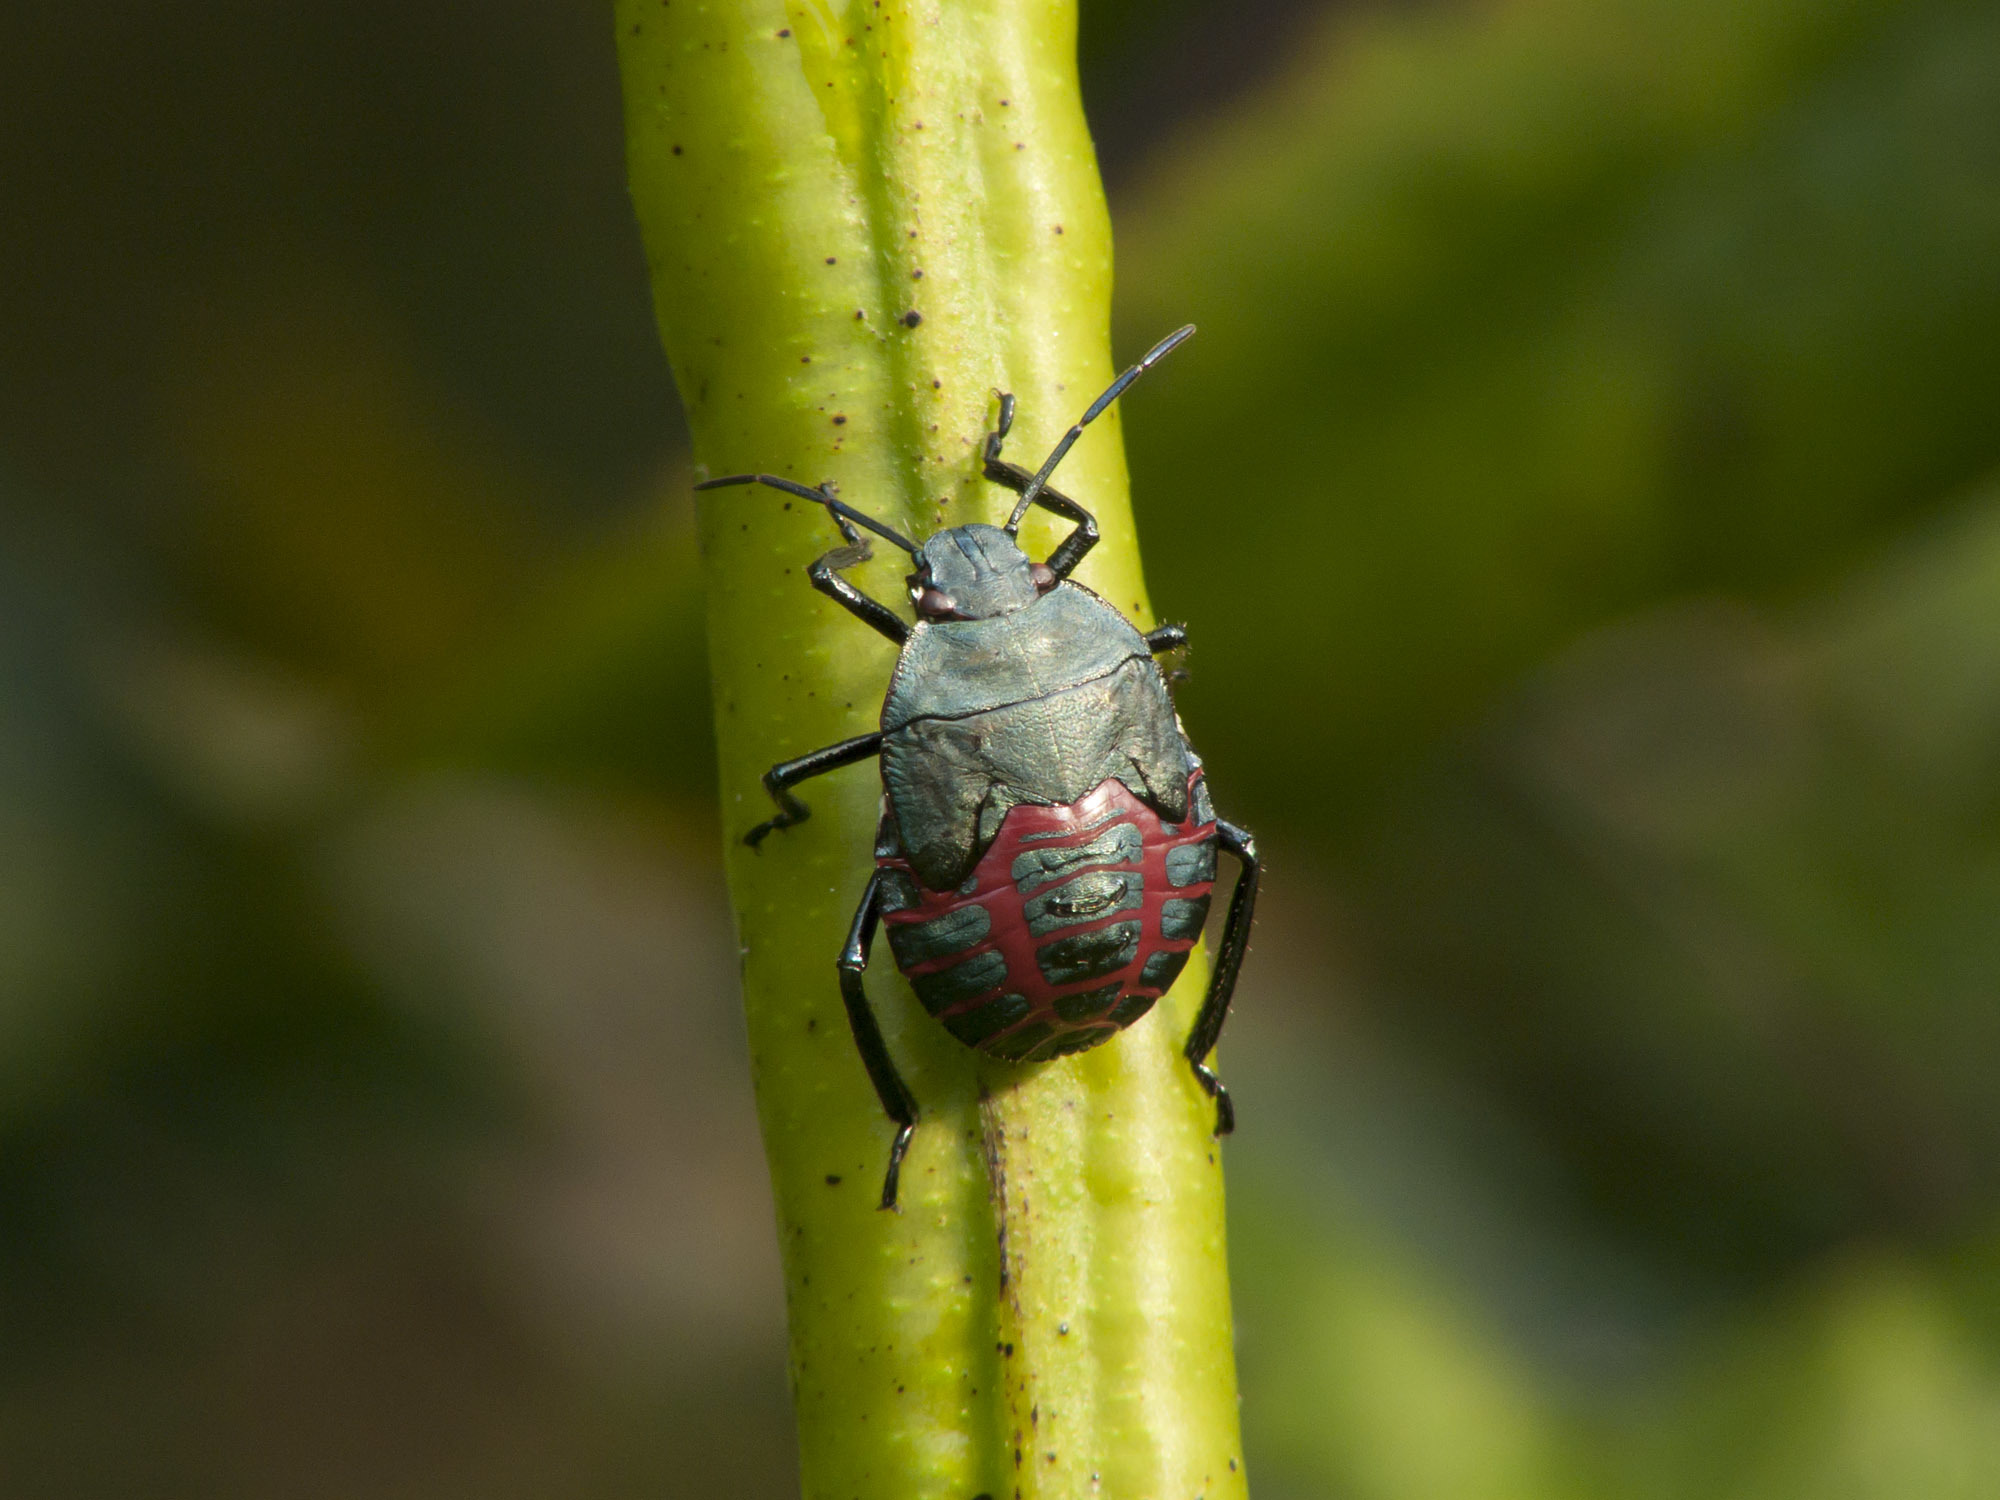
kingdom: Animalia
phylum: Arthropoda
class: Insecta
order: Hemiptera
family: Pentatomidae
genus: Pellaea
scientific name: Pellaea stictica
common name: Stink bug
